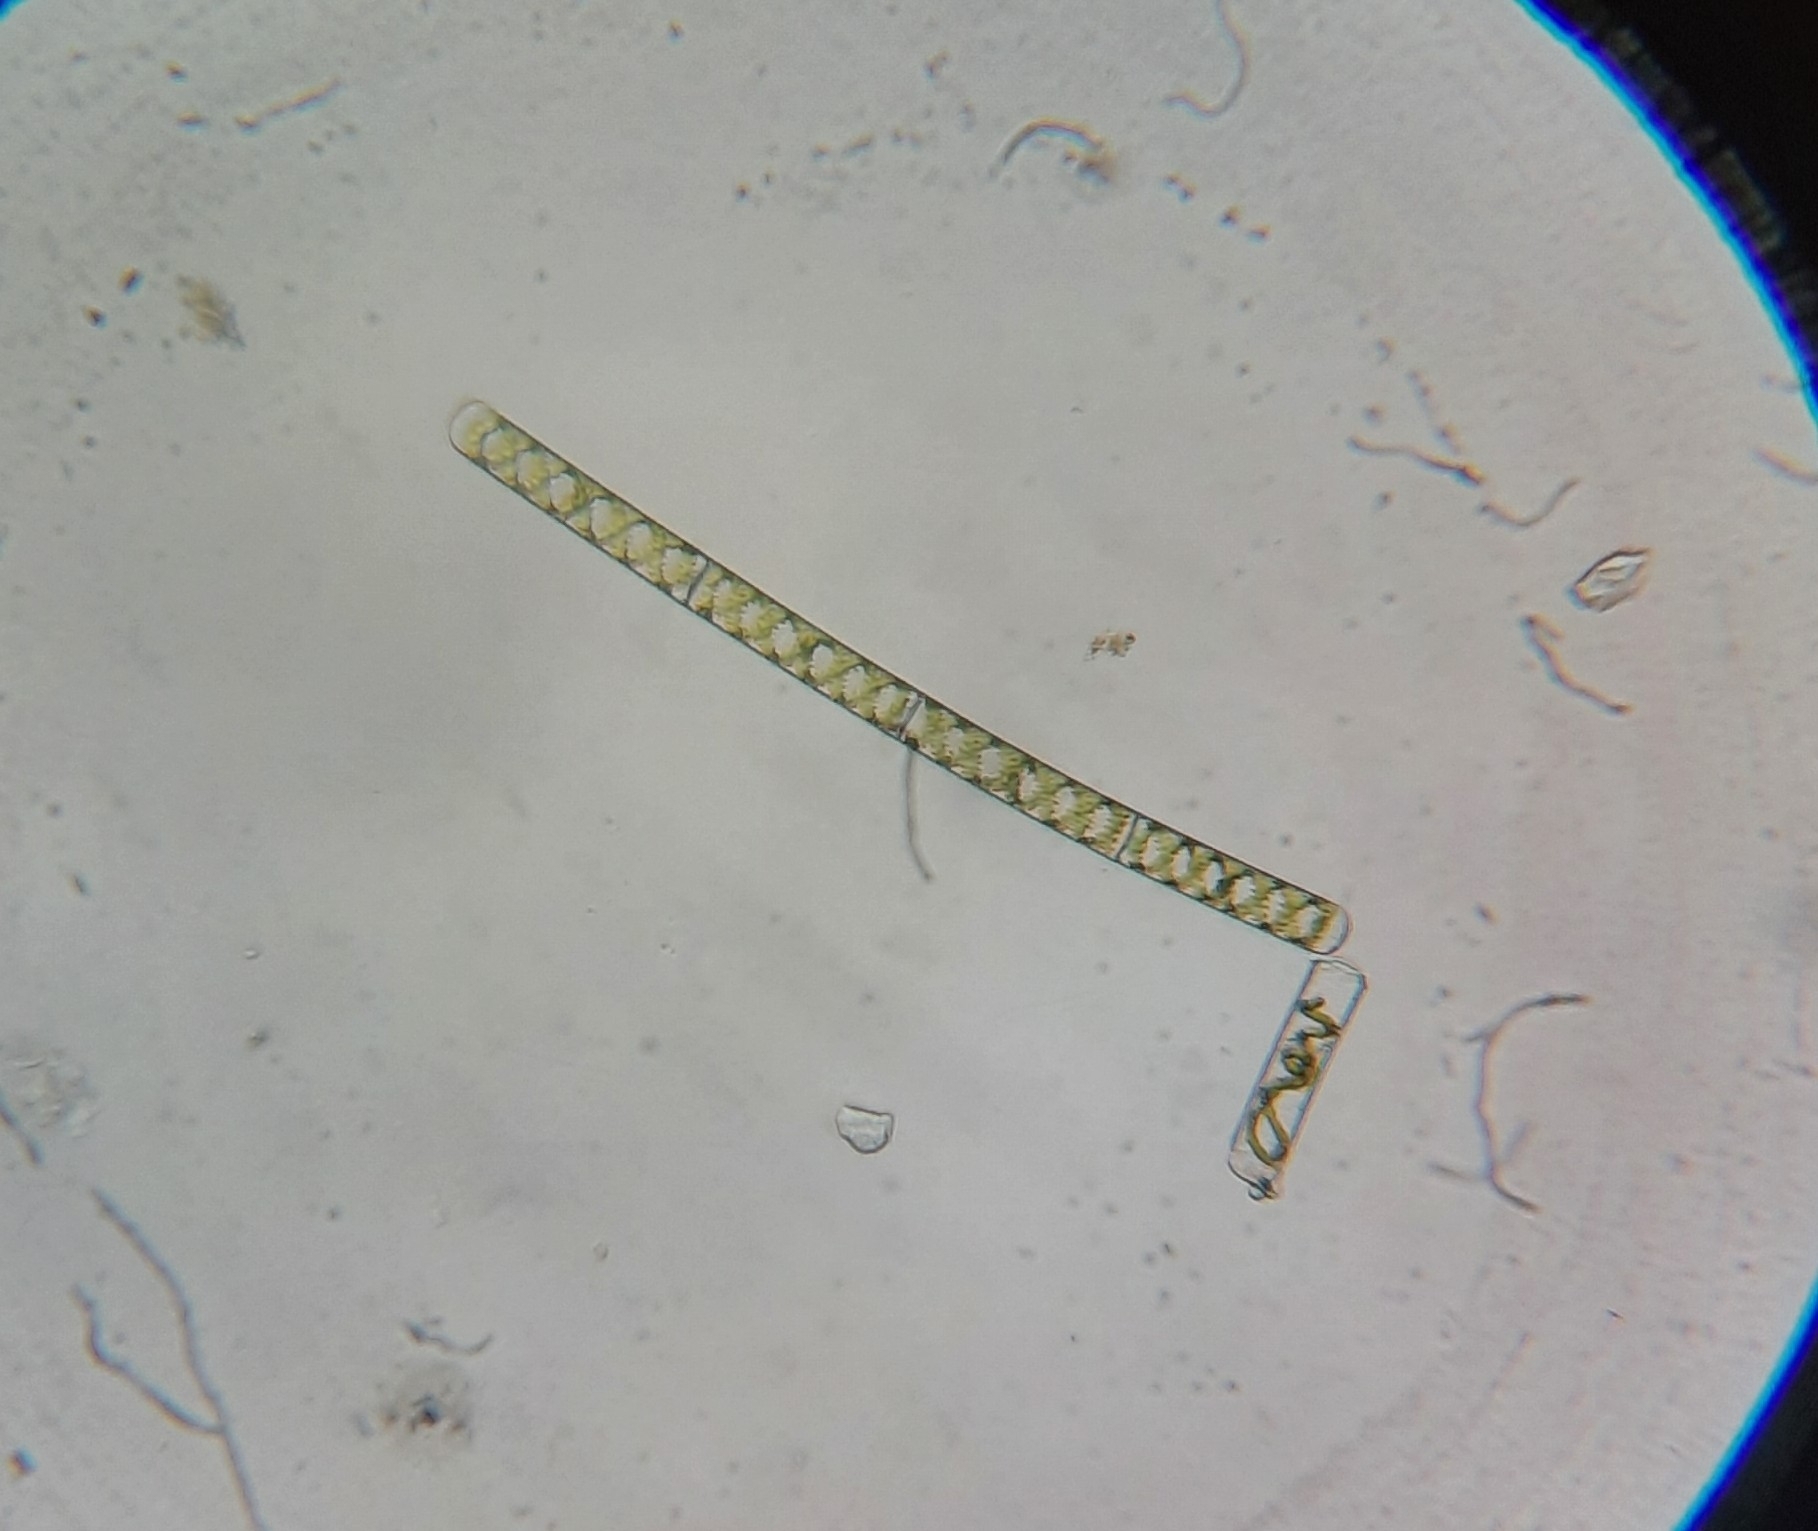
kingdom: Plantae
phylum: Charophyta
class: Zygnematophyceae
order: Zygnematales
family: Zygnemataceae
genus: Spirogyra
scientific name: Spirogyra
